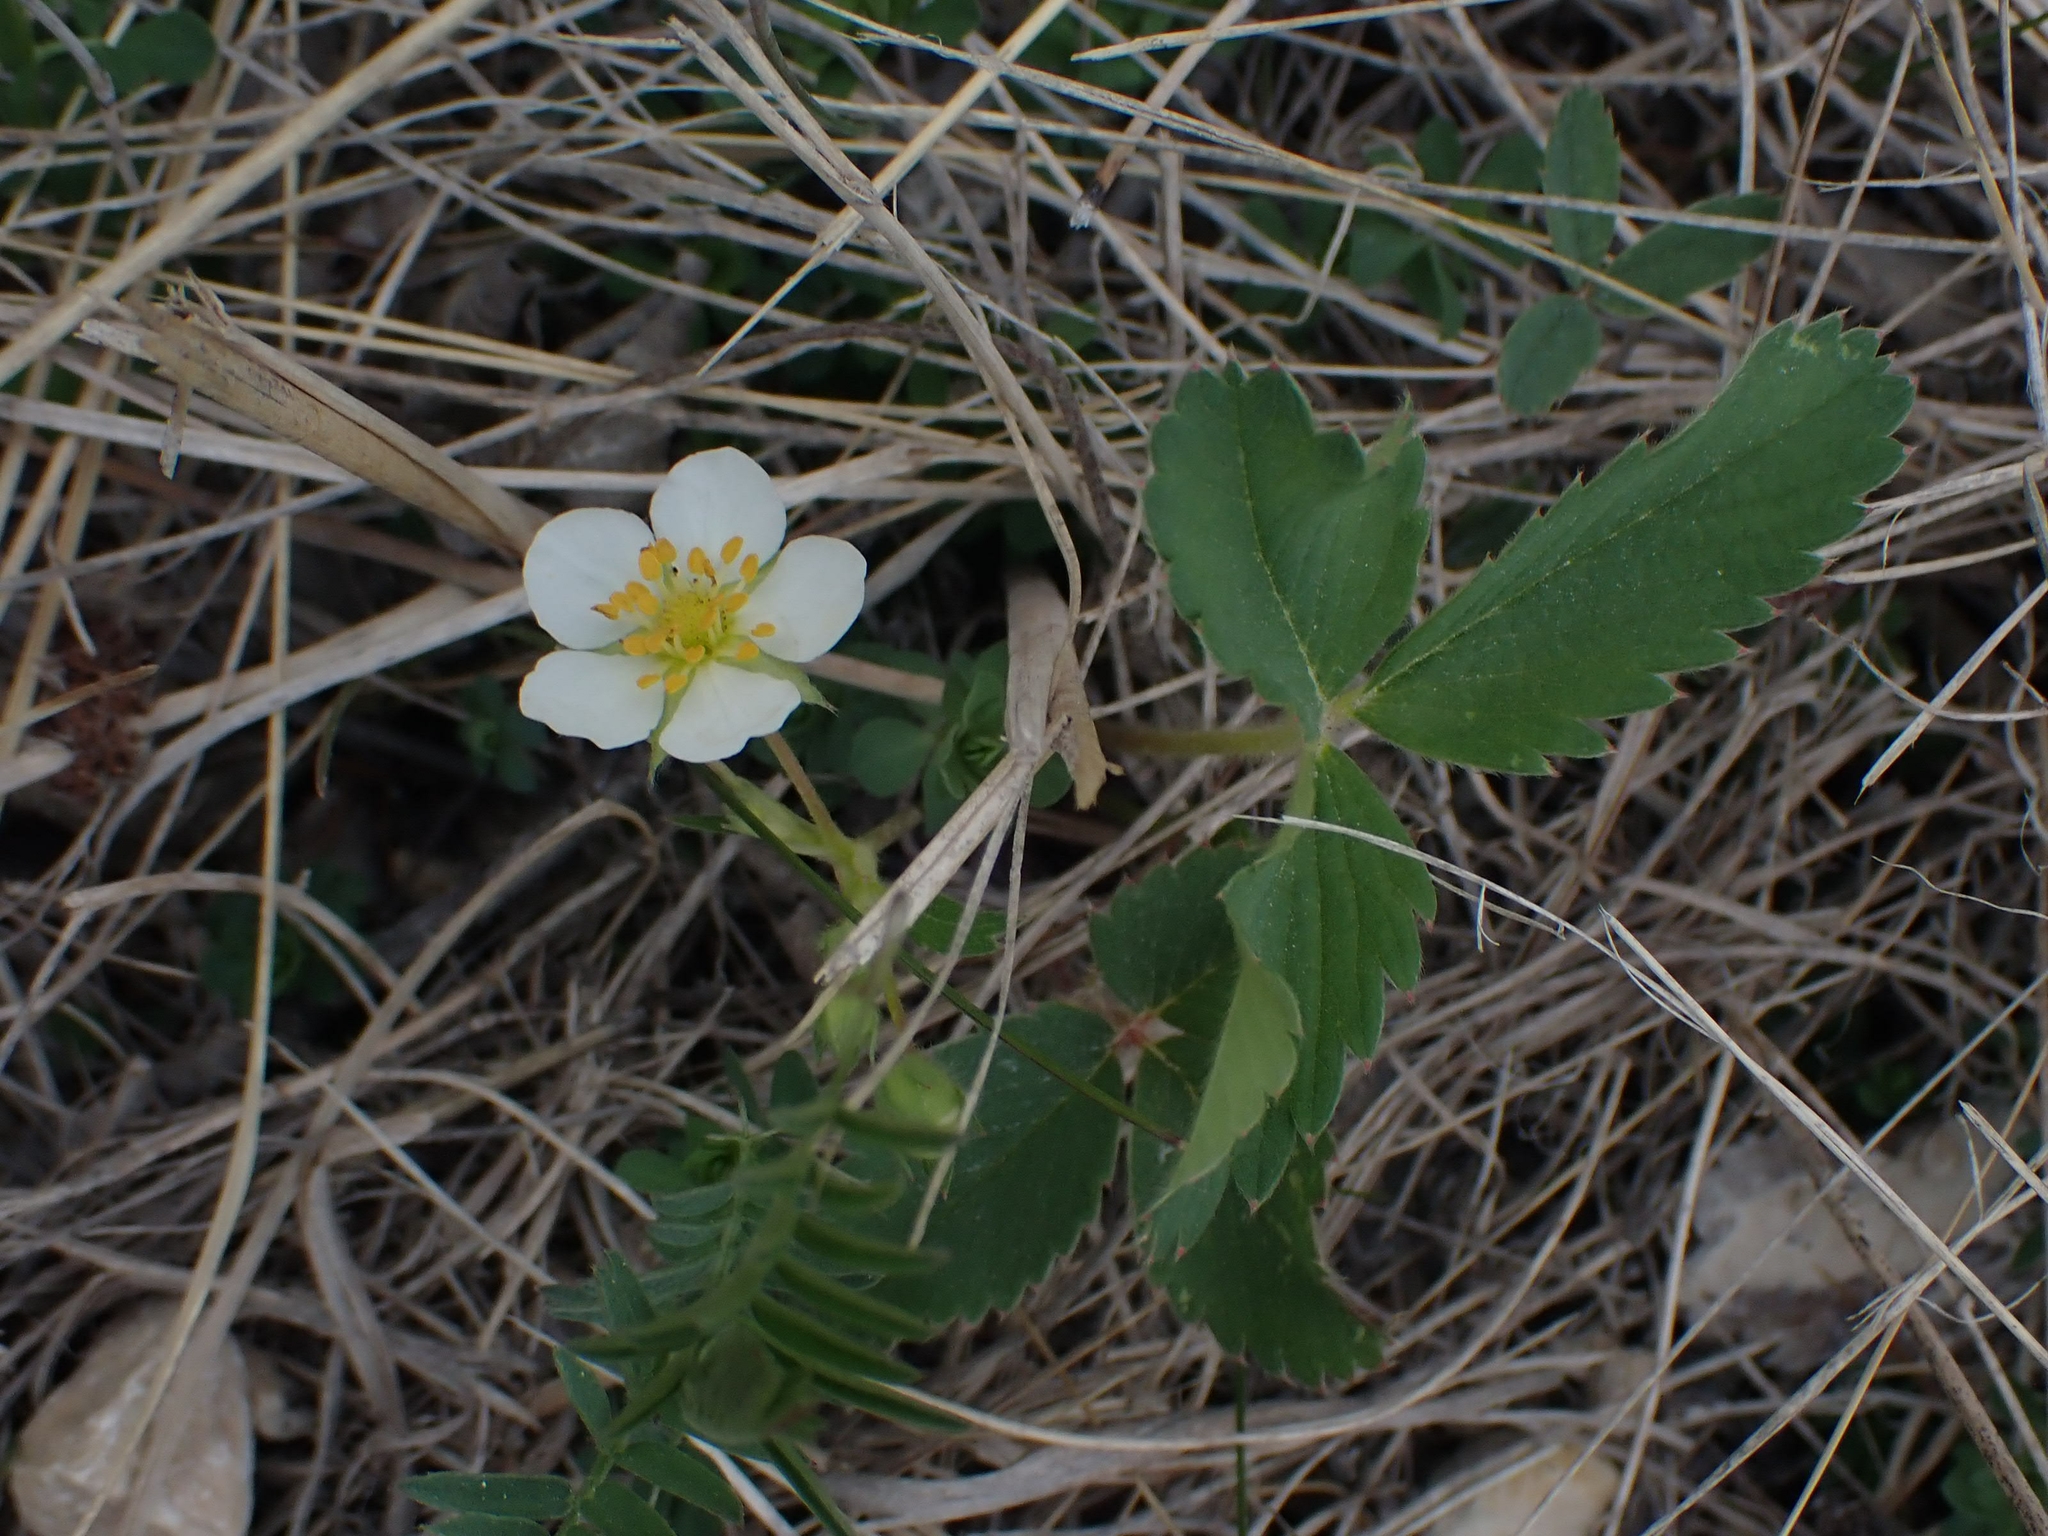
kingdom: Plantae
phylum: Tracheophyta
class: Magnoliopsida
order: Rosales
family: Rosaceae
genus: Fragaria
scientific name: Fragaria virginiana
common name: Thickleaved wild strawberry
